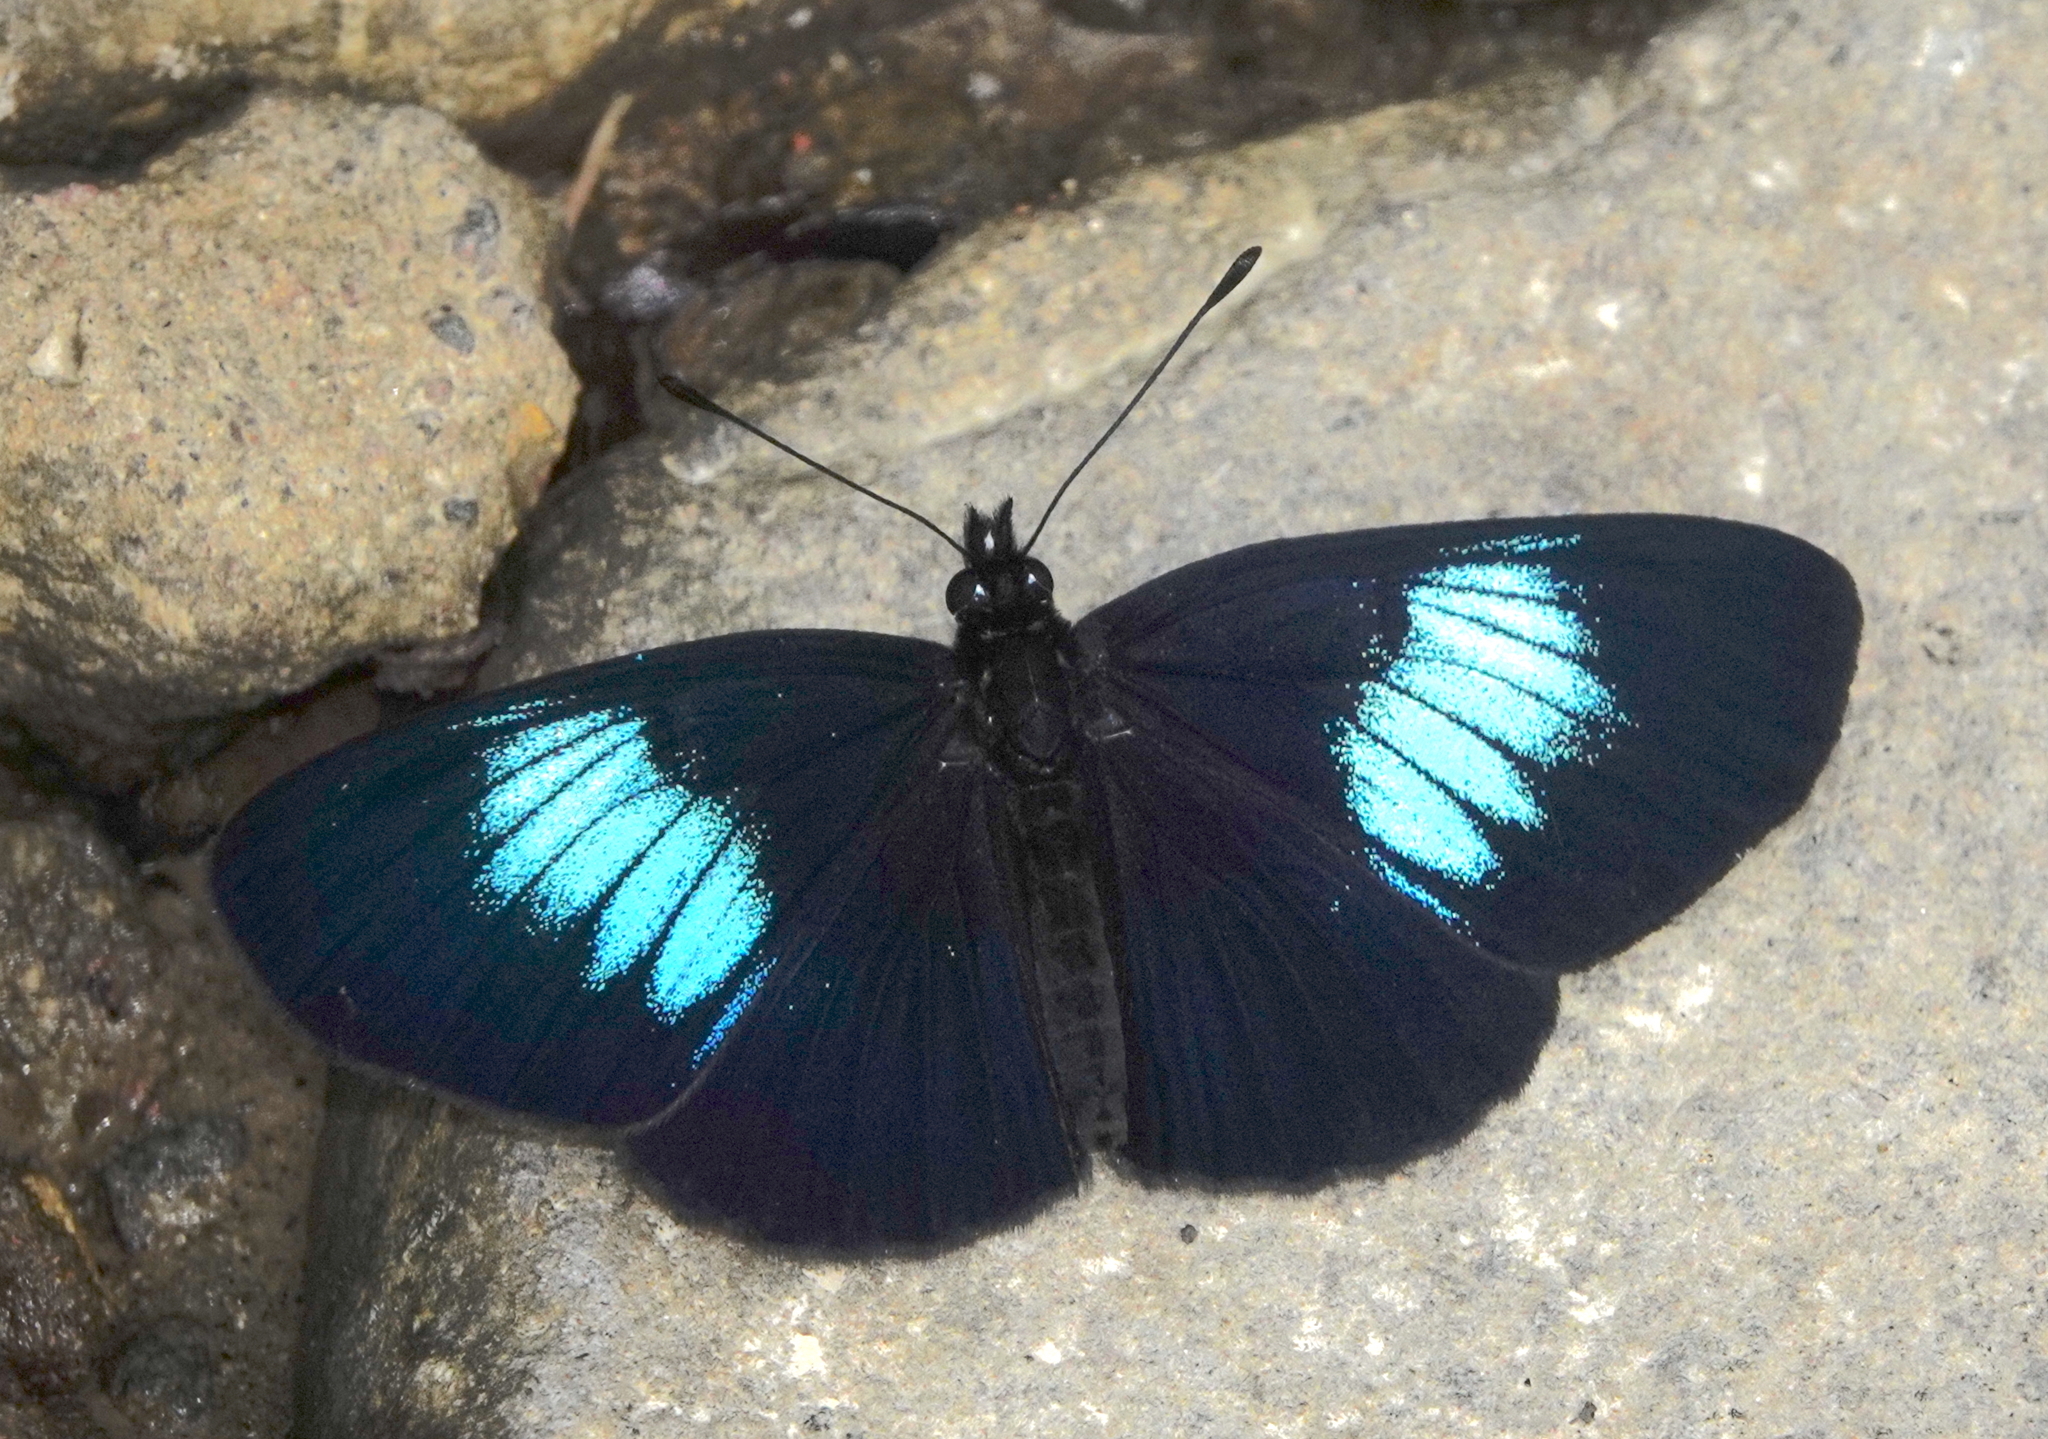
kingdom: Animalia
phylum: Arthropoda
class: Insecta
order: Lepidoptera
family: Nymphalidae
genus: Eresia
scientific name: Eresia levina
